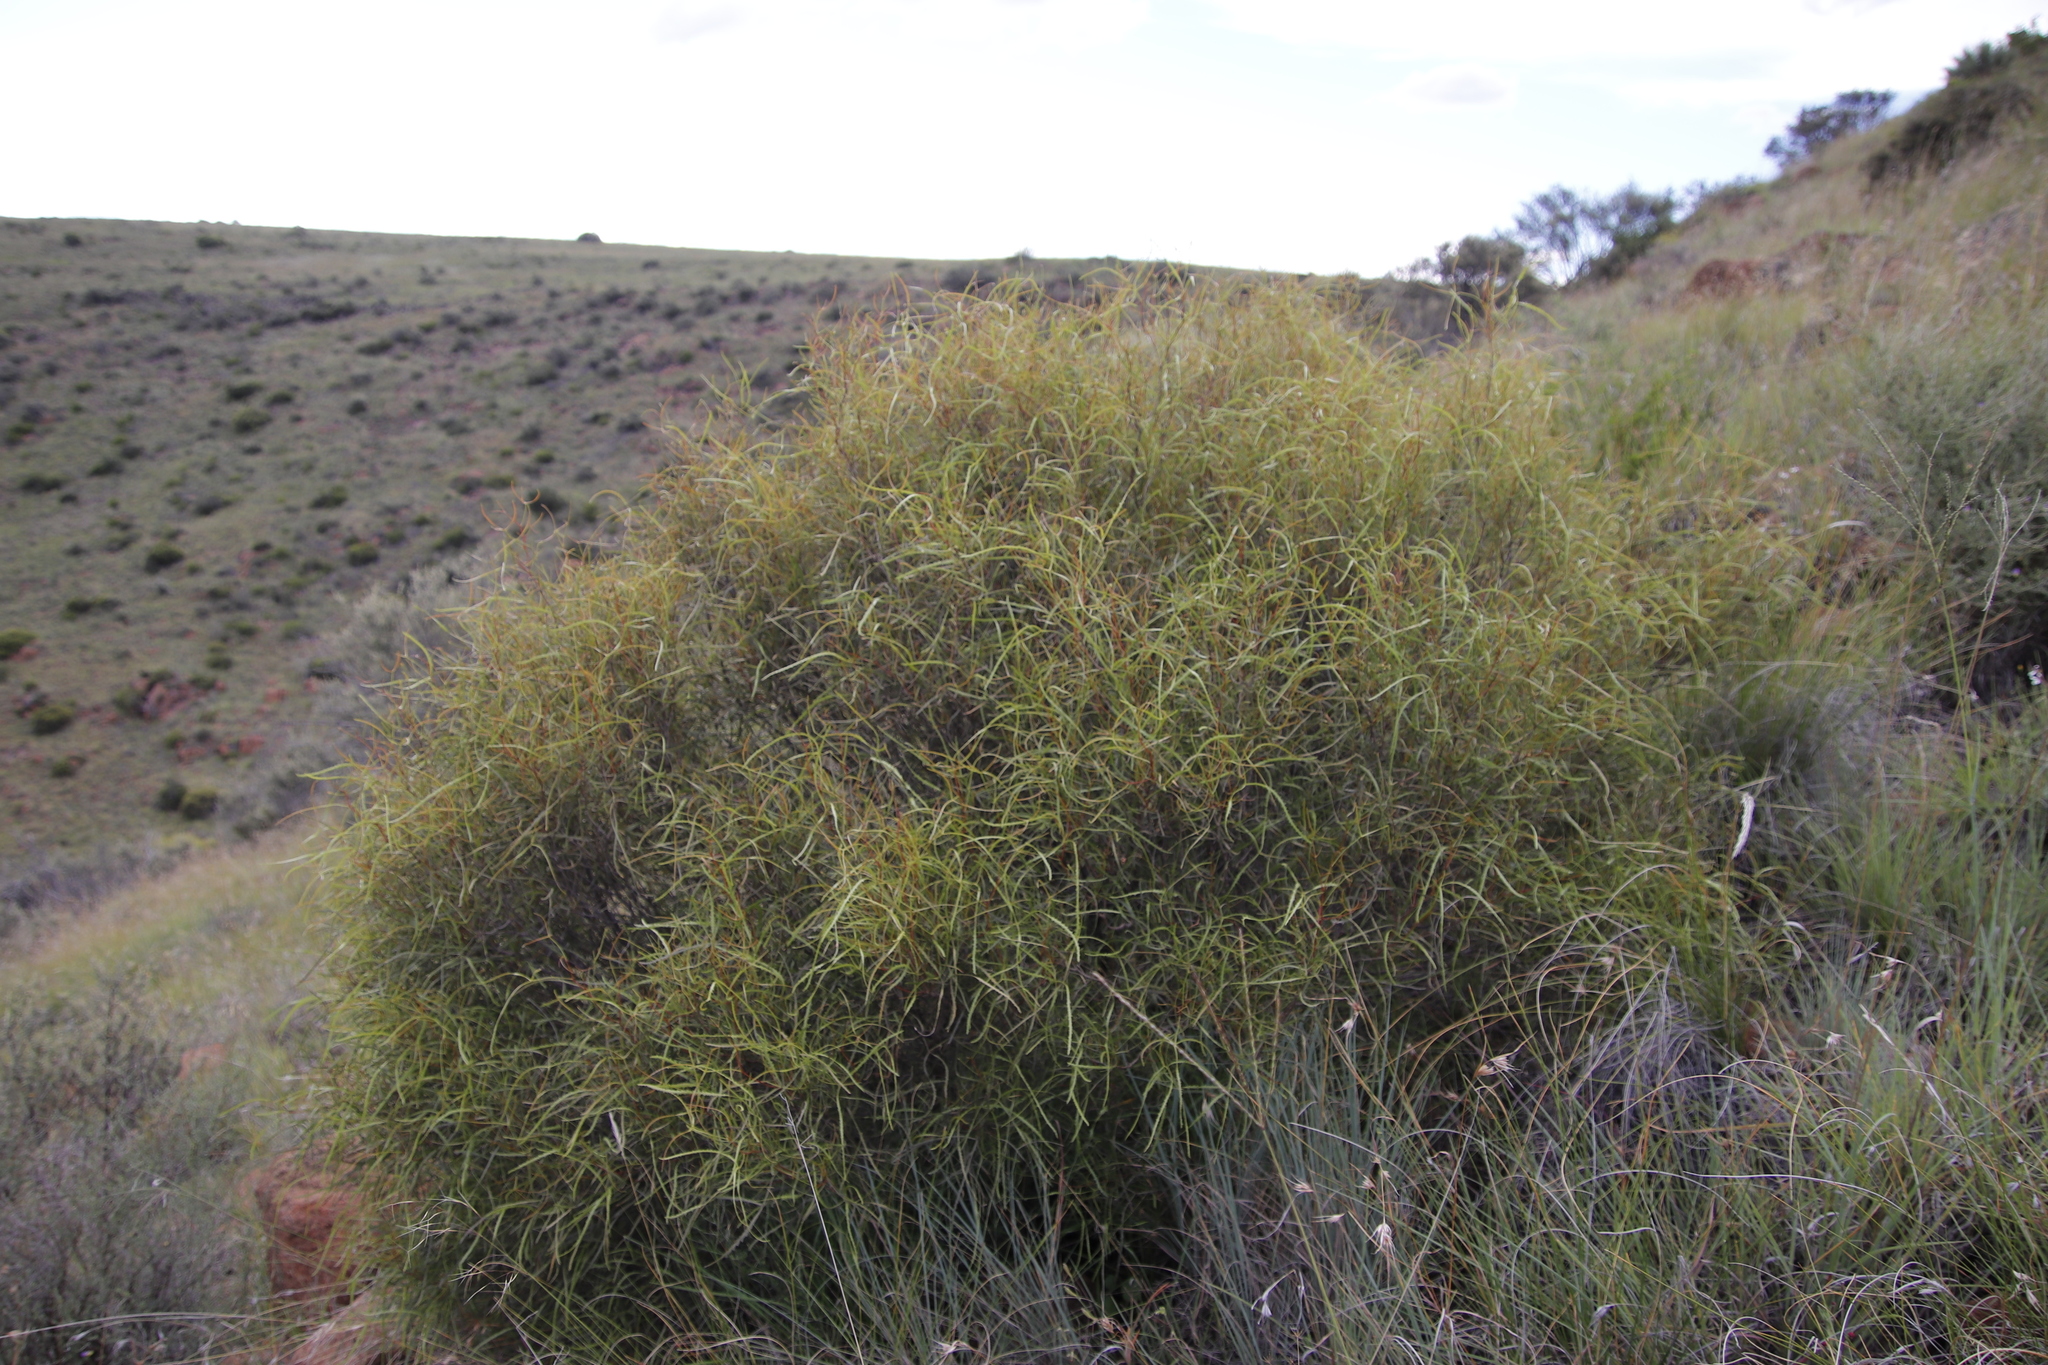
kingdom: Plantae
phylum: Tracheophyta
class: Magnoliopsida
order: Sapindales
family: Anacardiaceae
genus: Searsia
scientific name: Searsia erosa
